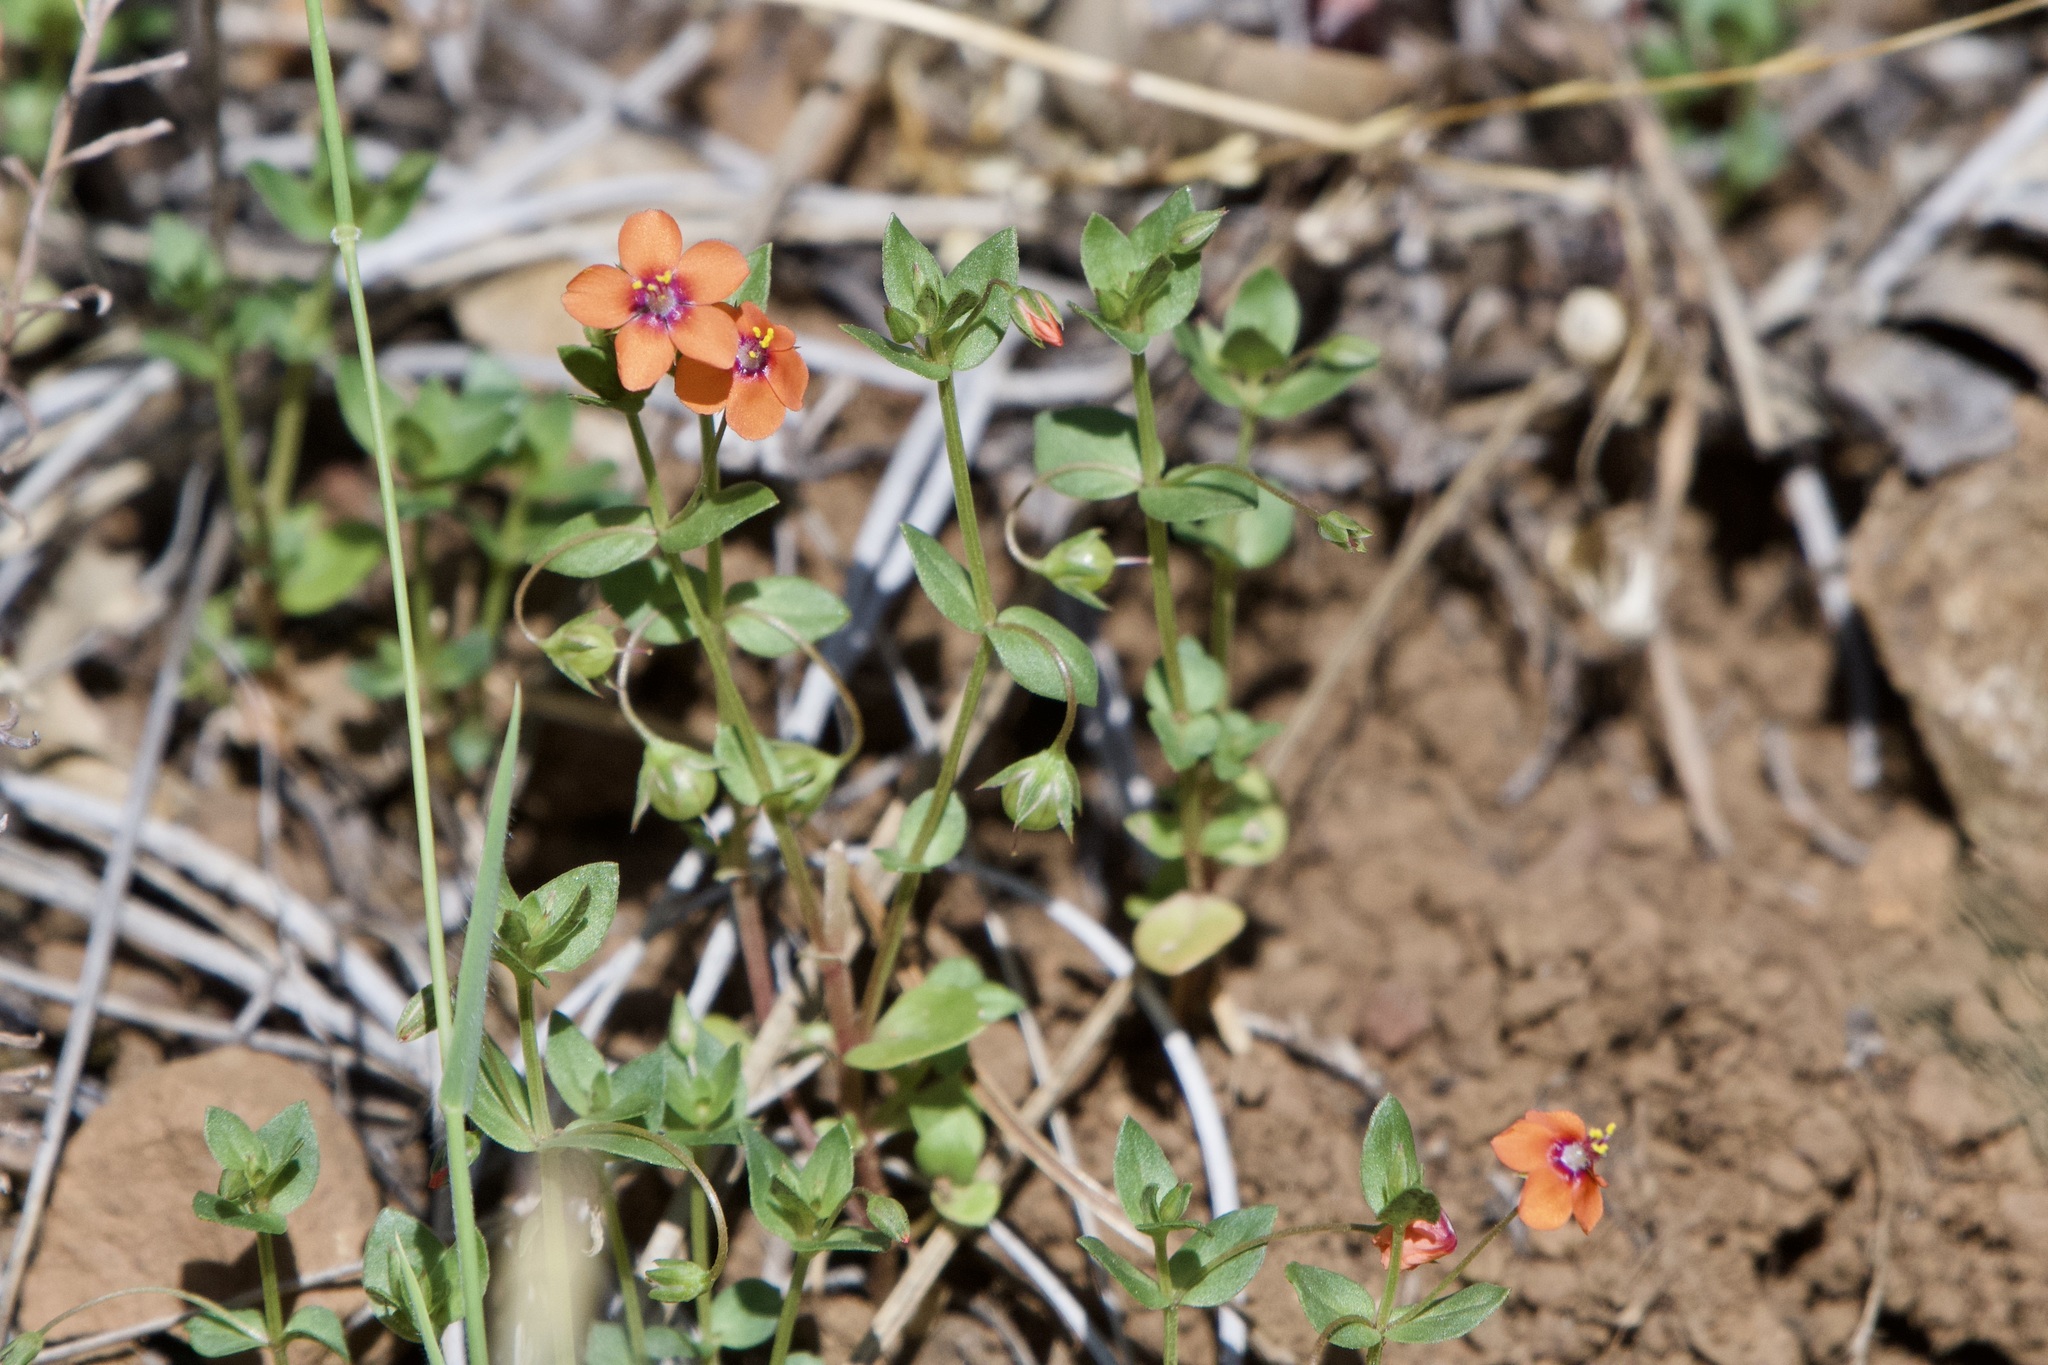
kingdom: Plantae
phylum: Tracheophyta
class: Magnoliopsida
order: Ericales
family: Primulaceae
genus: Lysimachia
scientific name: Lysimachia arvensis
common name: Scarlet pimpernel
